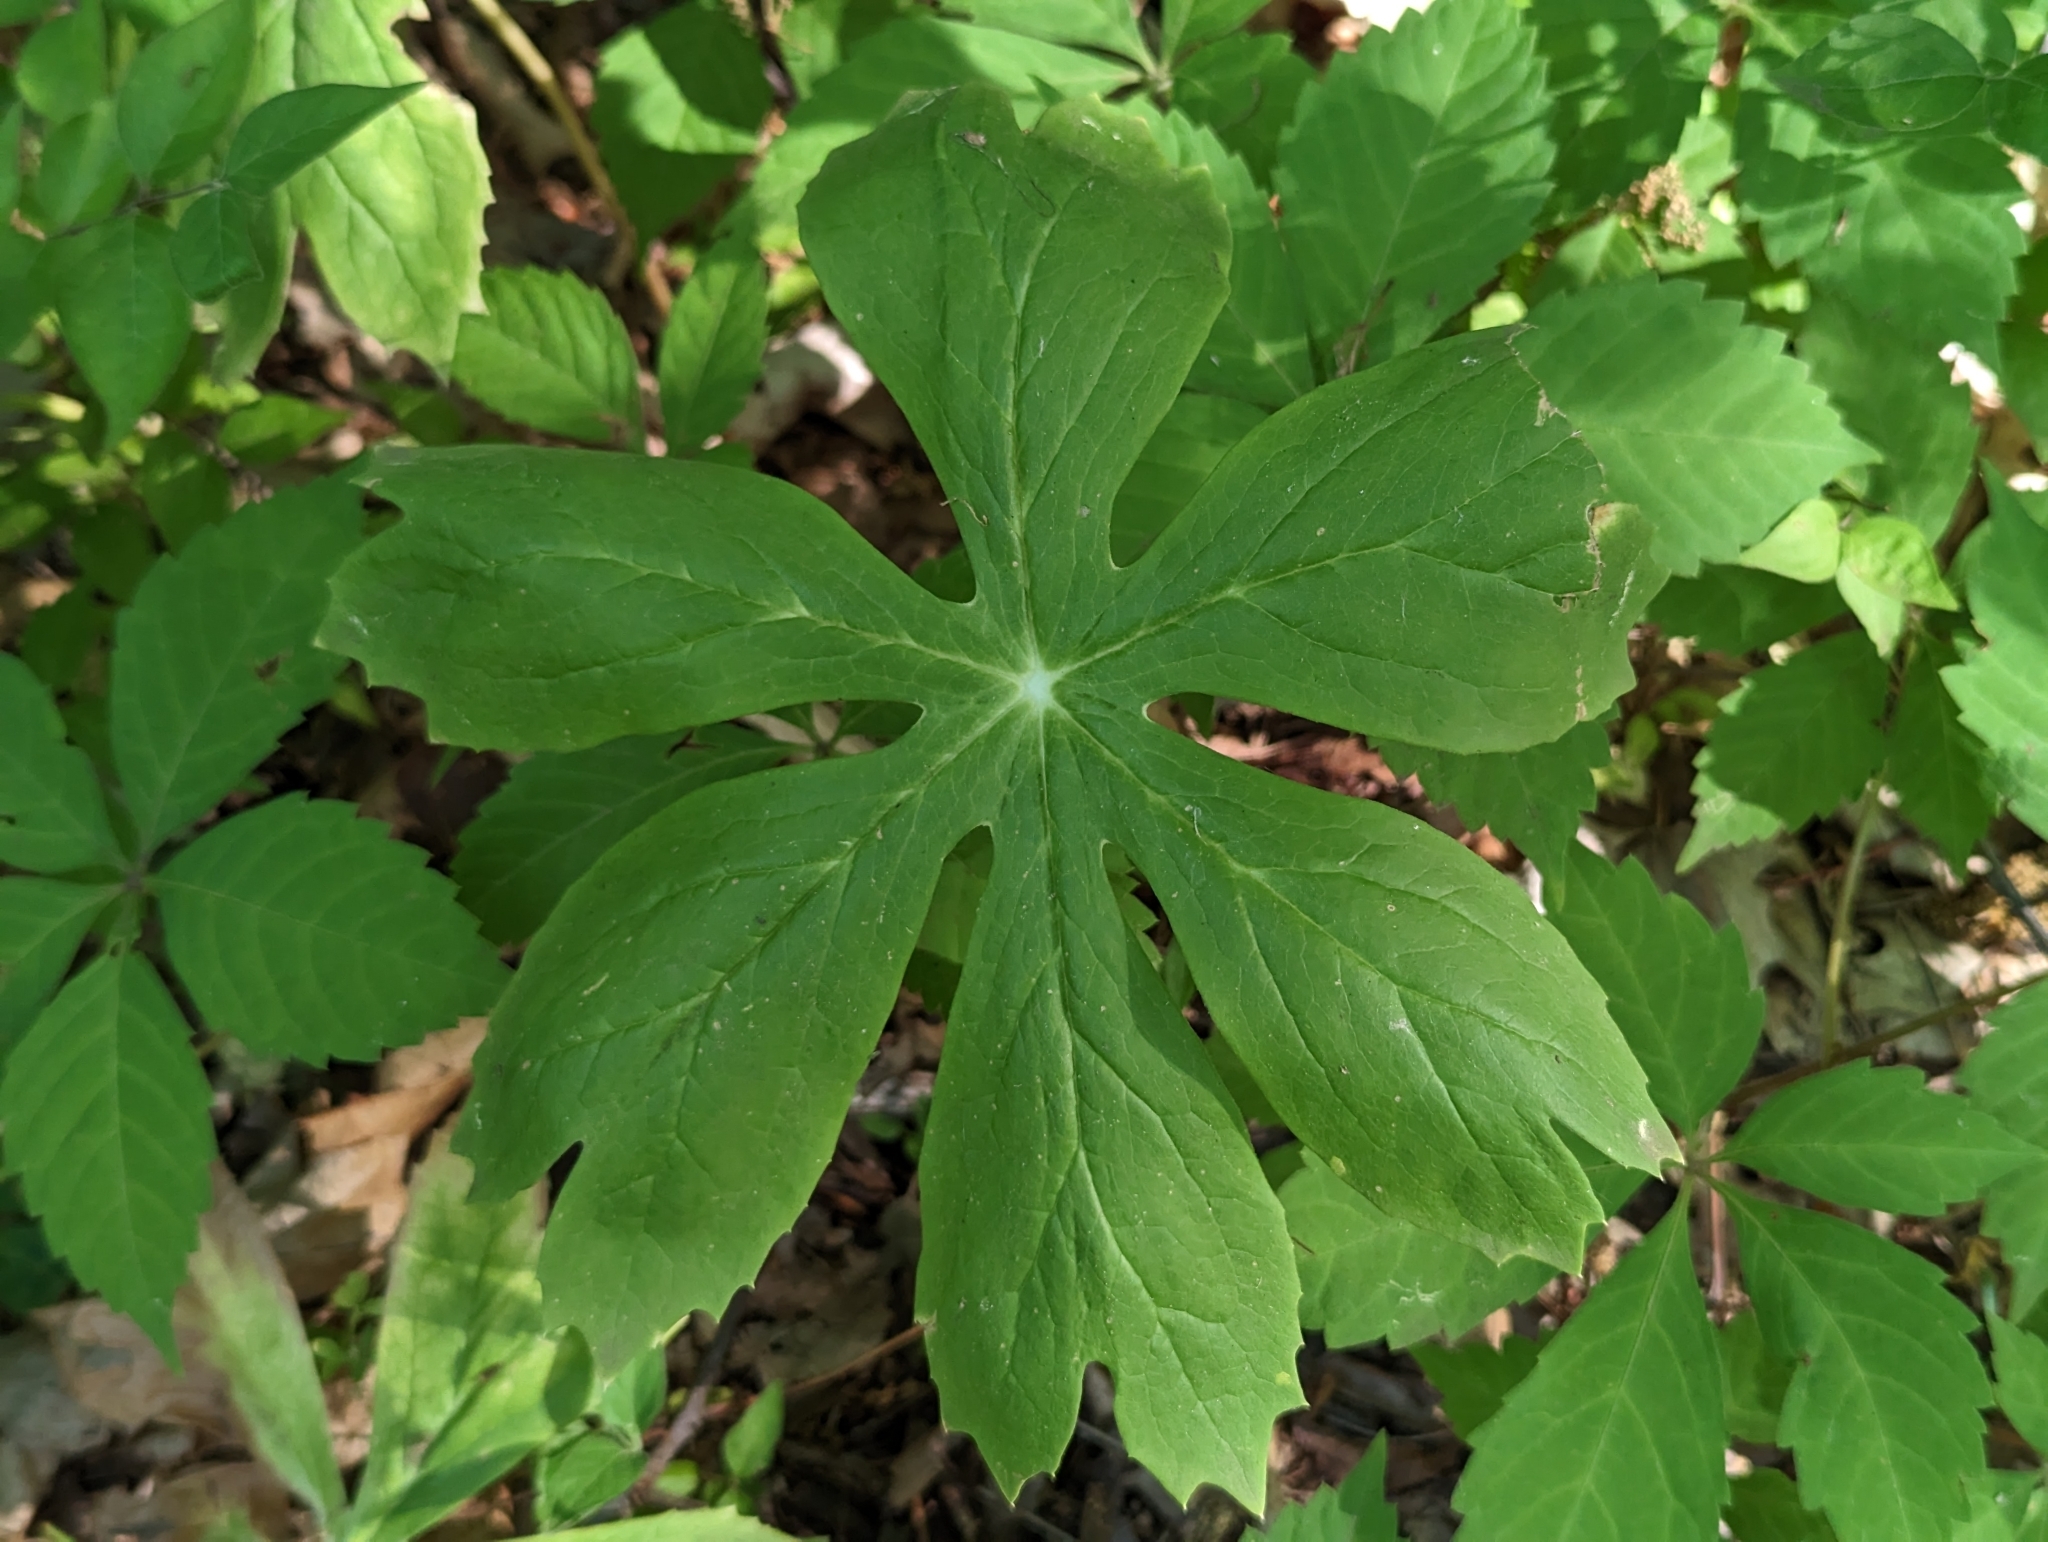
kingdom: Plantae
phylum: Tracheophyta
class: Magnoliopsida
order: Ranunculales
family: Berberidaceae
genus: Podophyllum
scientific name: Podophyllum peltatum
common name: Wild mandrake
